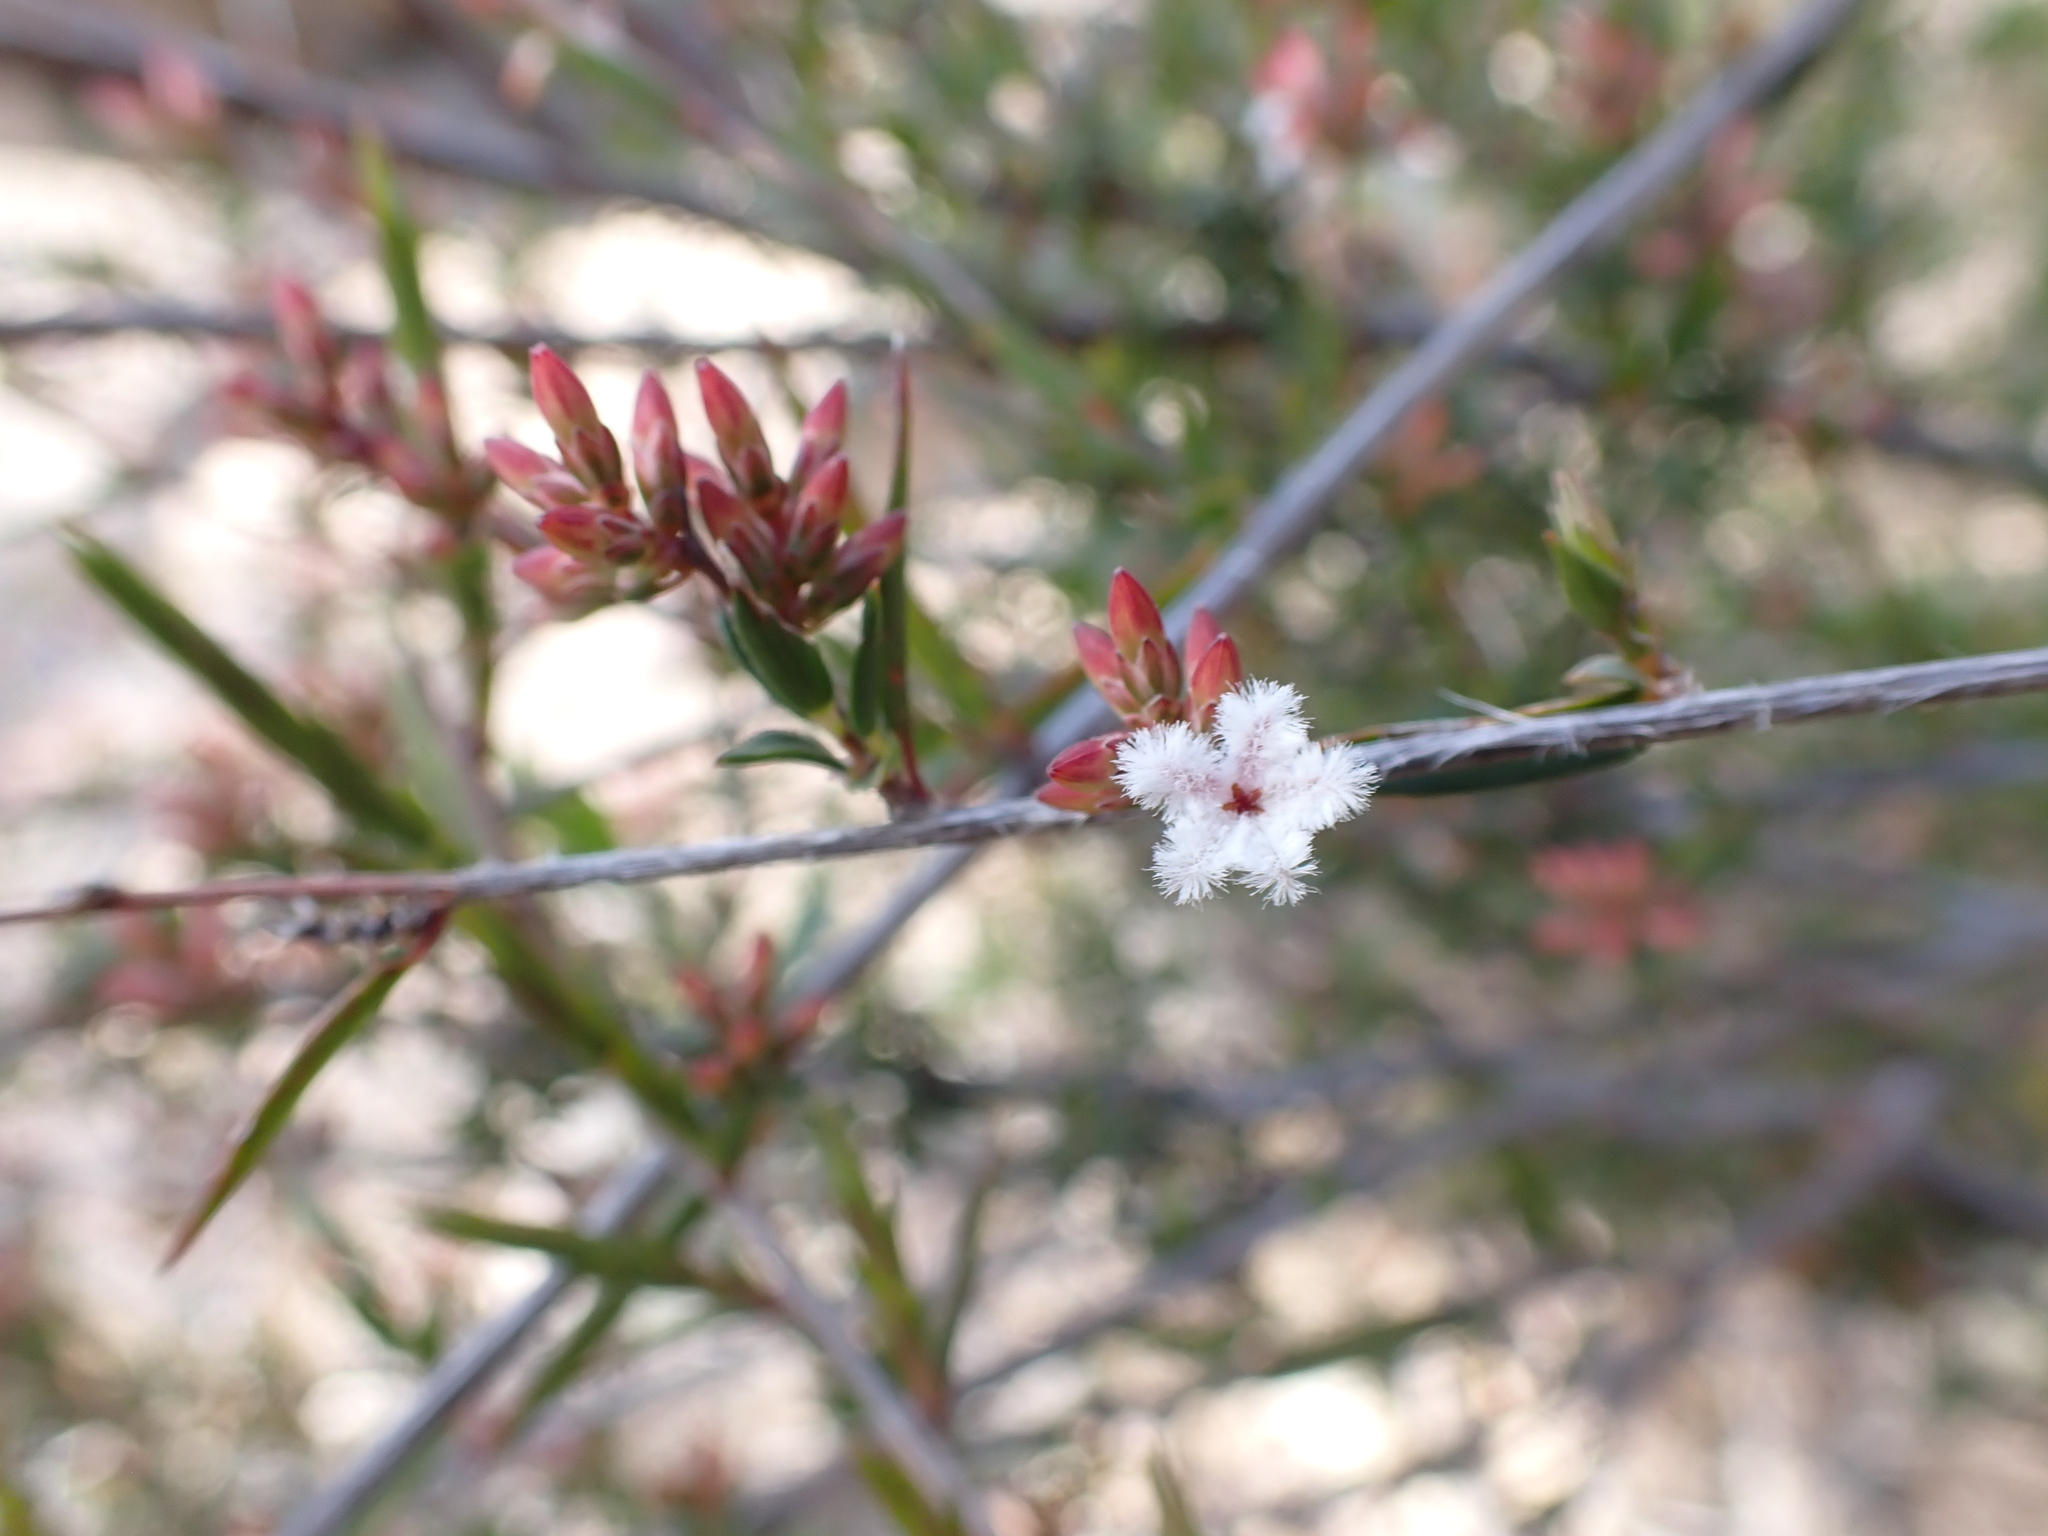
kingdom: Plantae
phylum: Tracheophyta
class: Magnoliopsida
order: Ericales
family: Ericaceae
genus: Leucopogon
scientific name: Leucopogon virgatus
